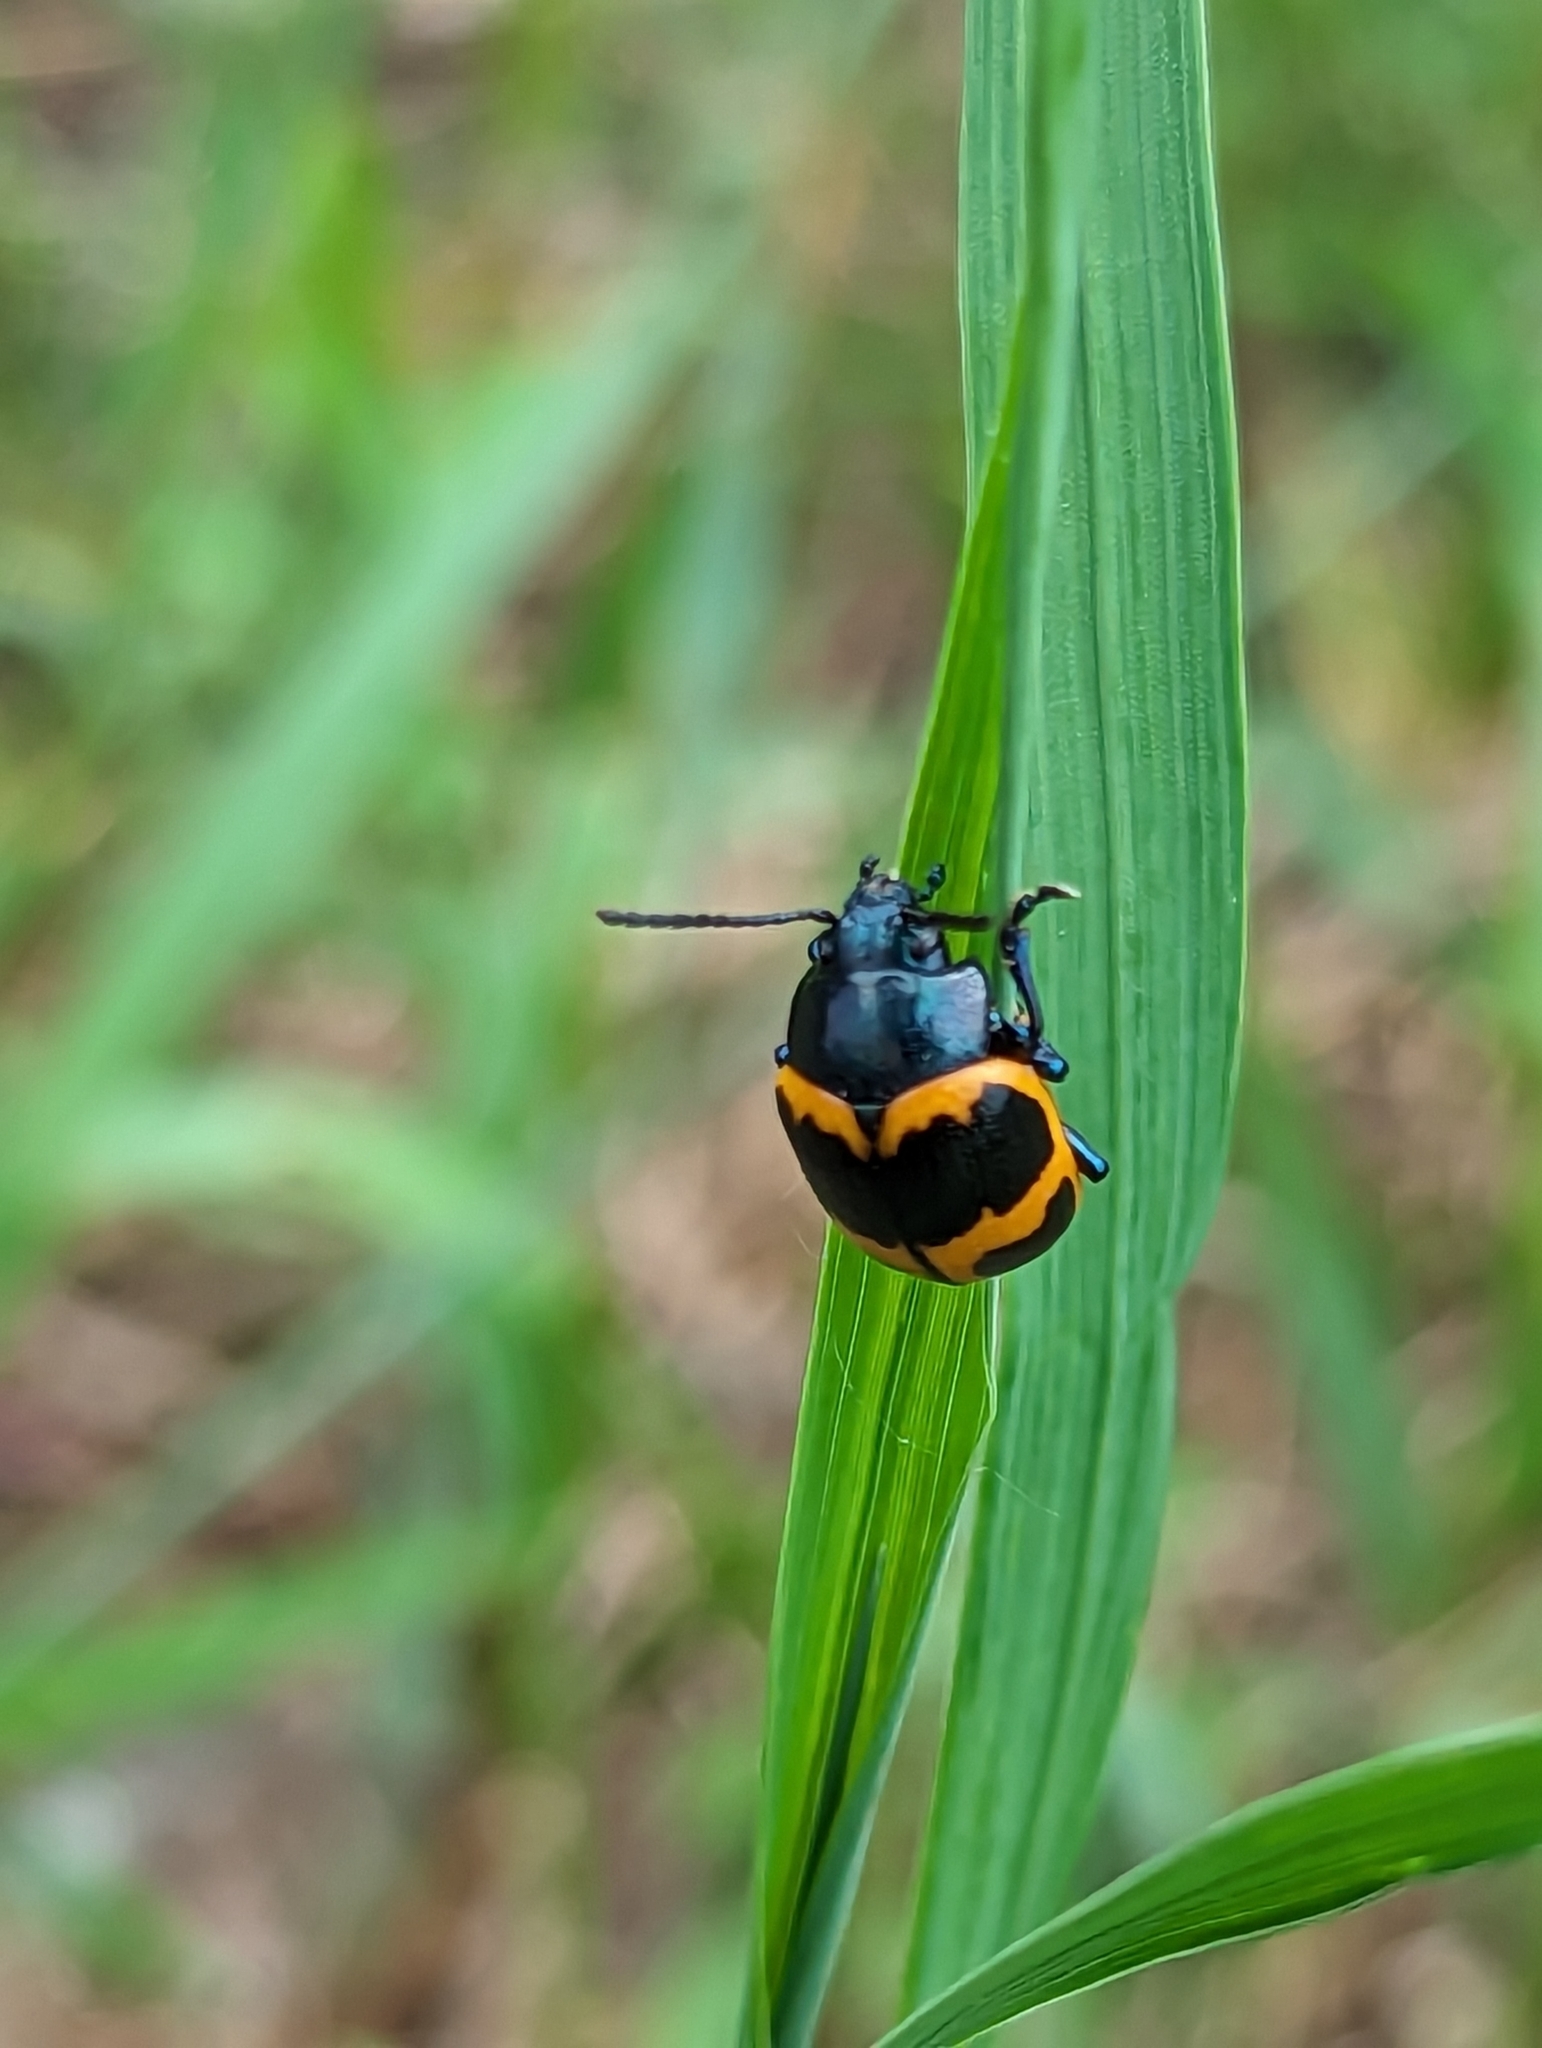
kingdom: Animalia
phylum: Arthropoda
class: Insecta
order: Coleoptera
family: Chrysomelidae
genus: Labidomera
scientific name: Labidomera clivicollis
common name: Swamp milkweed leaf beetle
